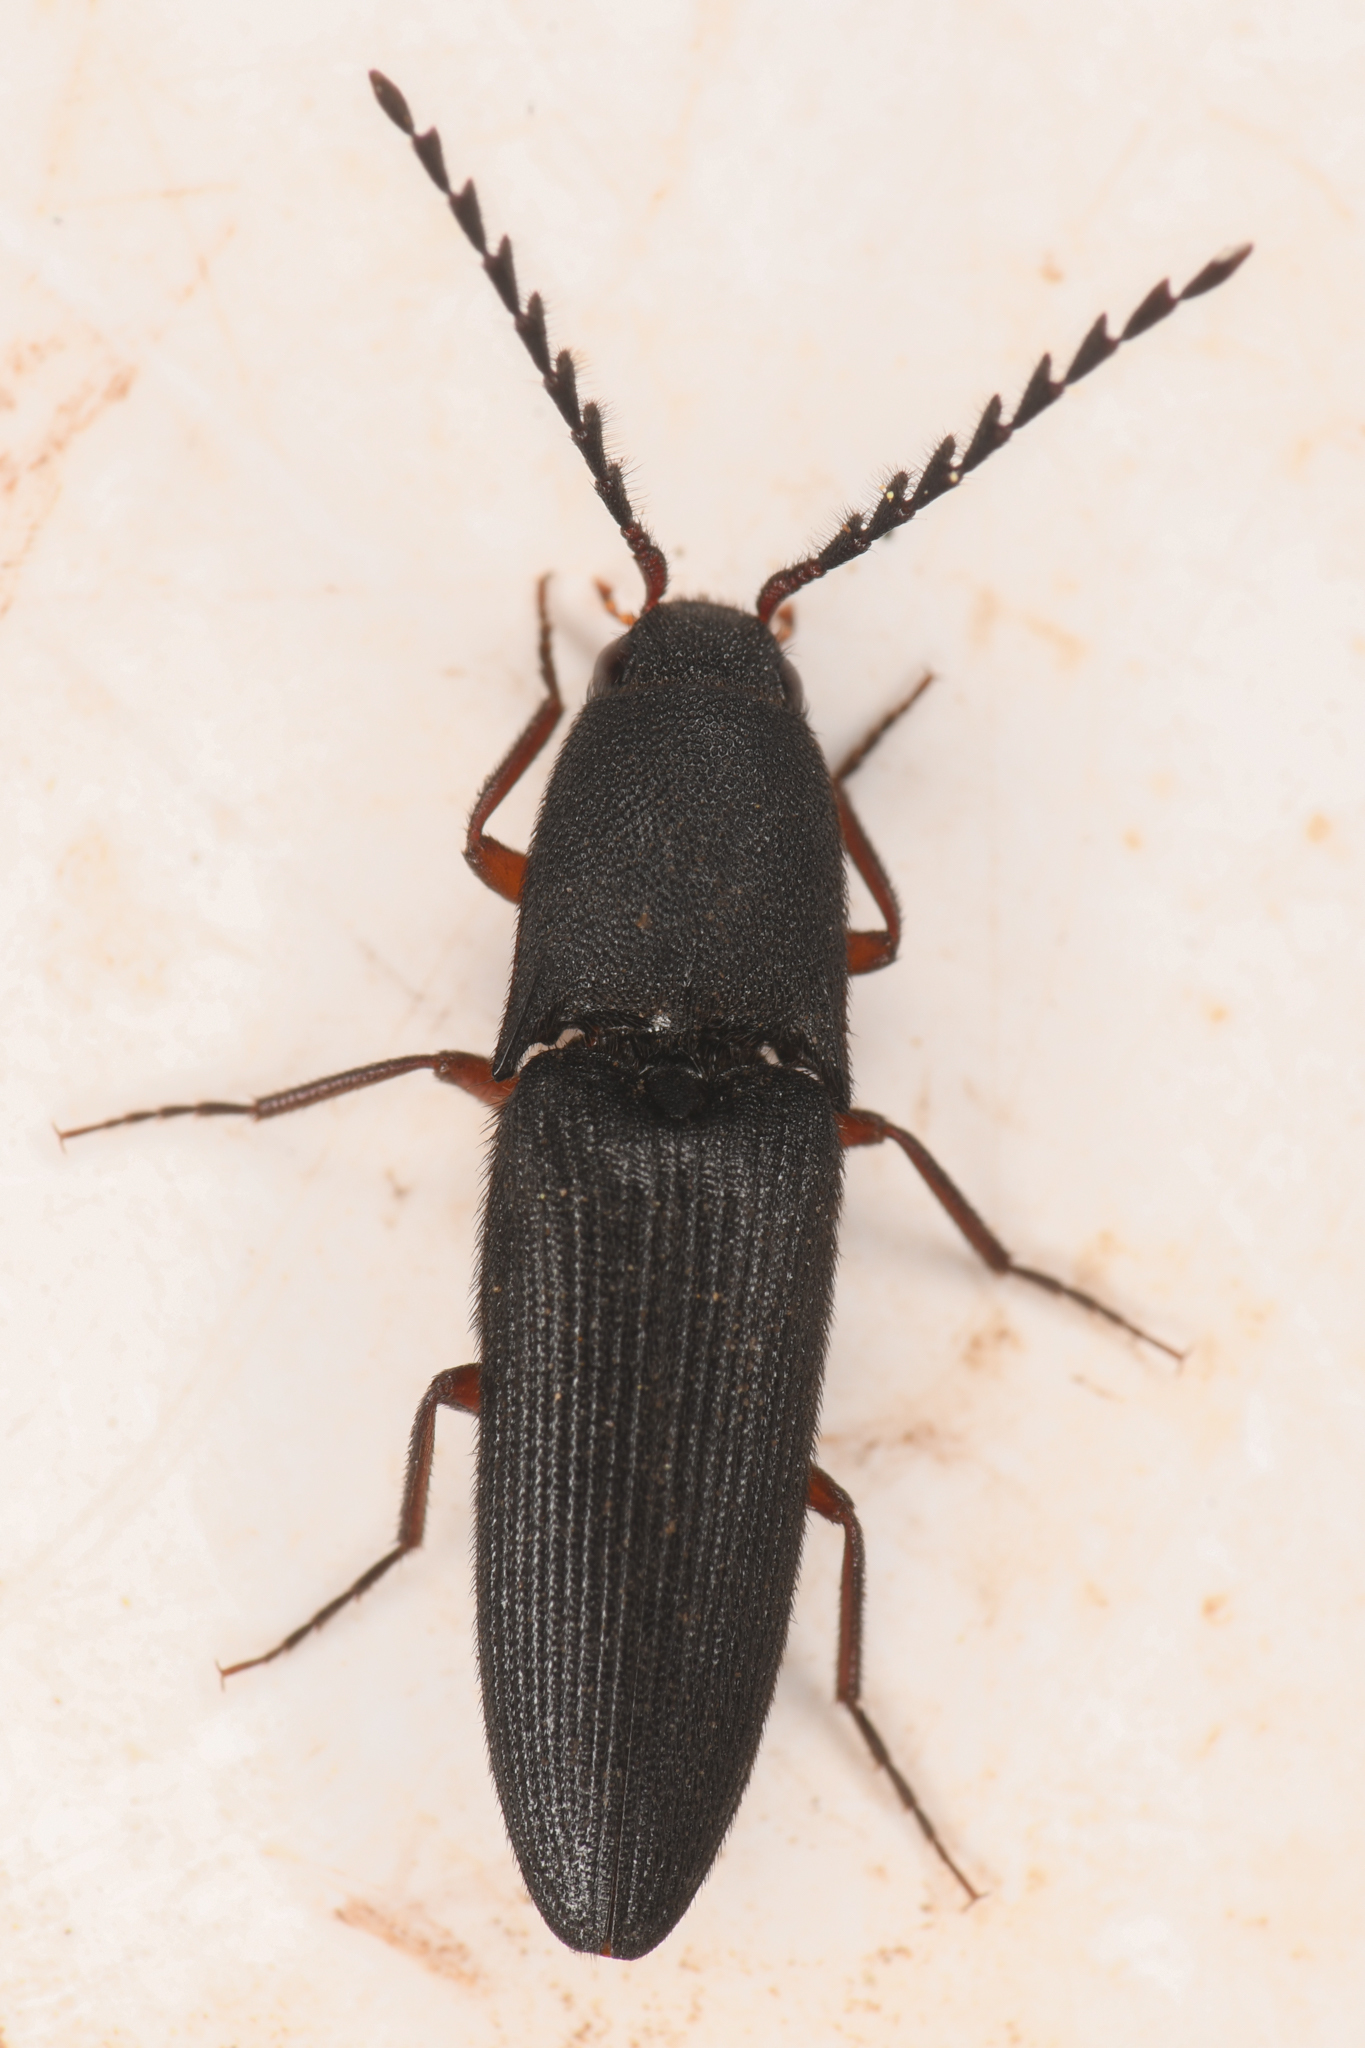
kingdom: Animalia
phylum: Arthropoda
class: Insecta
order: Coleoptera
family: Elateridae
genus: Megapenthes
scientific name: Megapenthes
